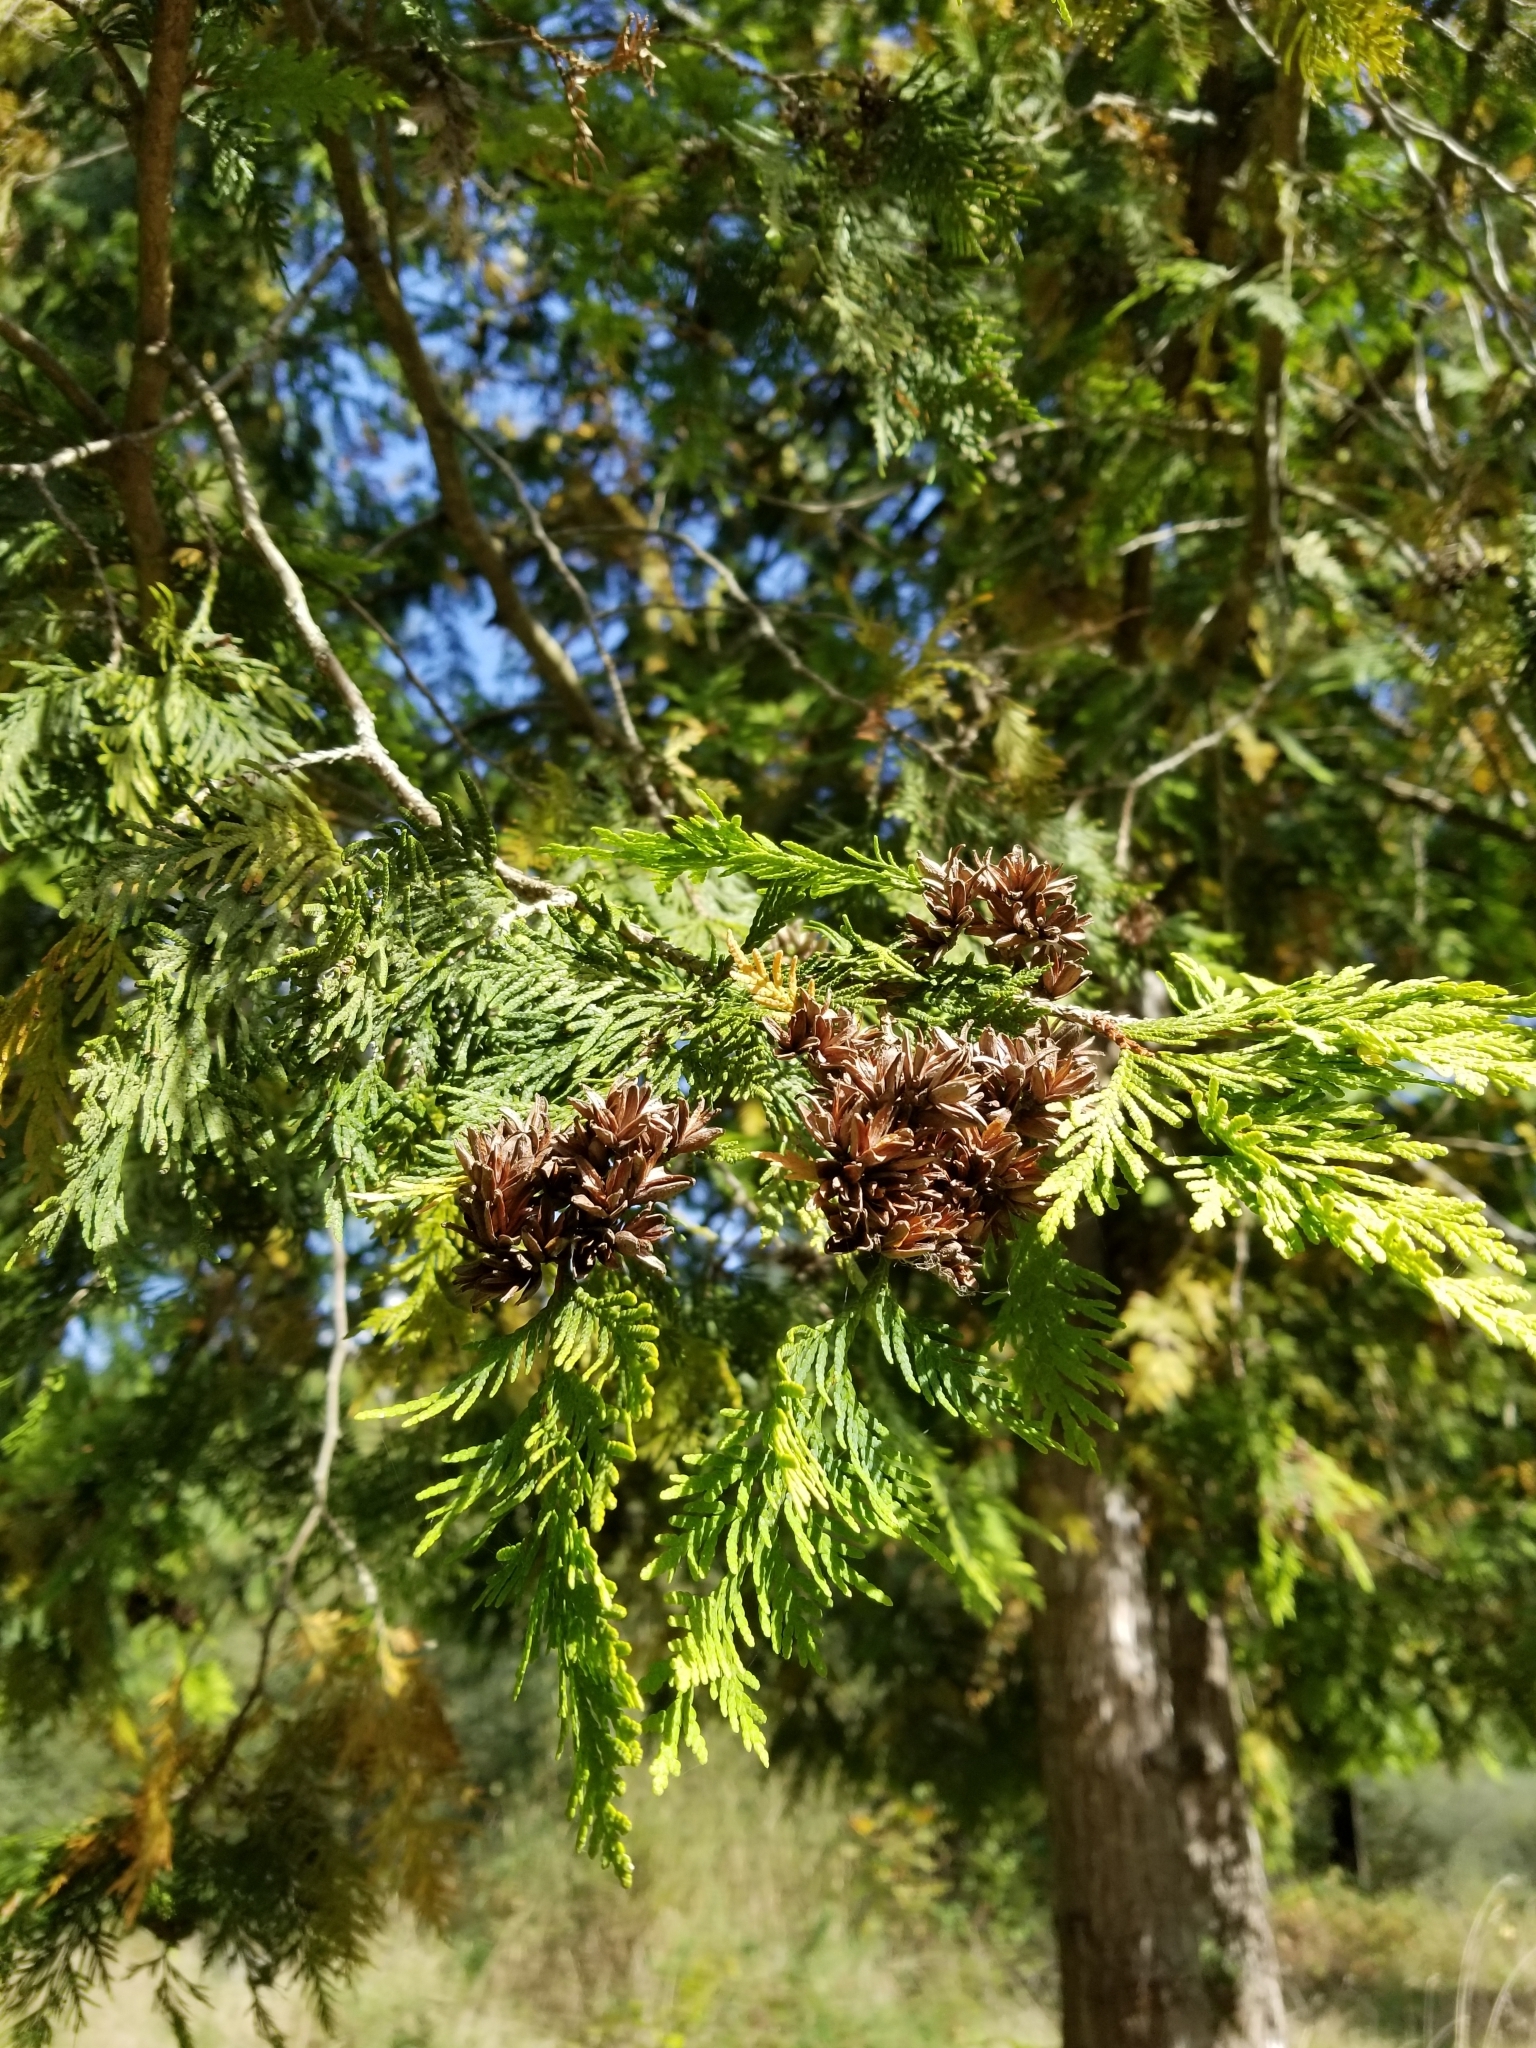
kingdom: Plantae
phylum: Tracheophyta
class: Pinopsida
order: Pinales
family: Cupressaceae
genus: Thuja
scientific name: Thuja plicata
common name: Western red-cedar
